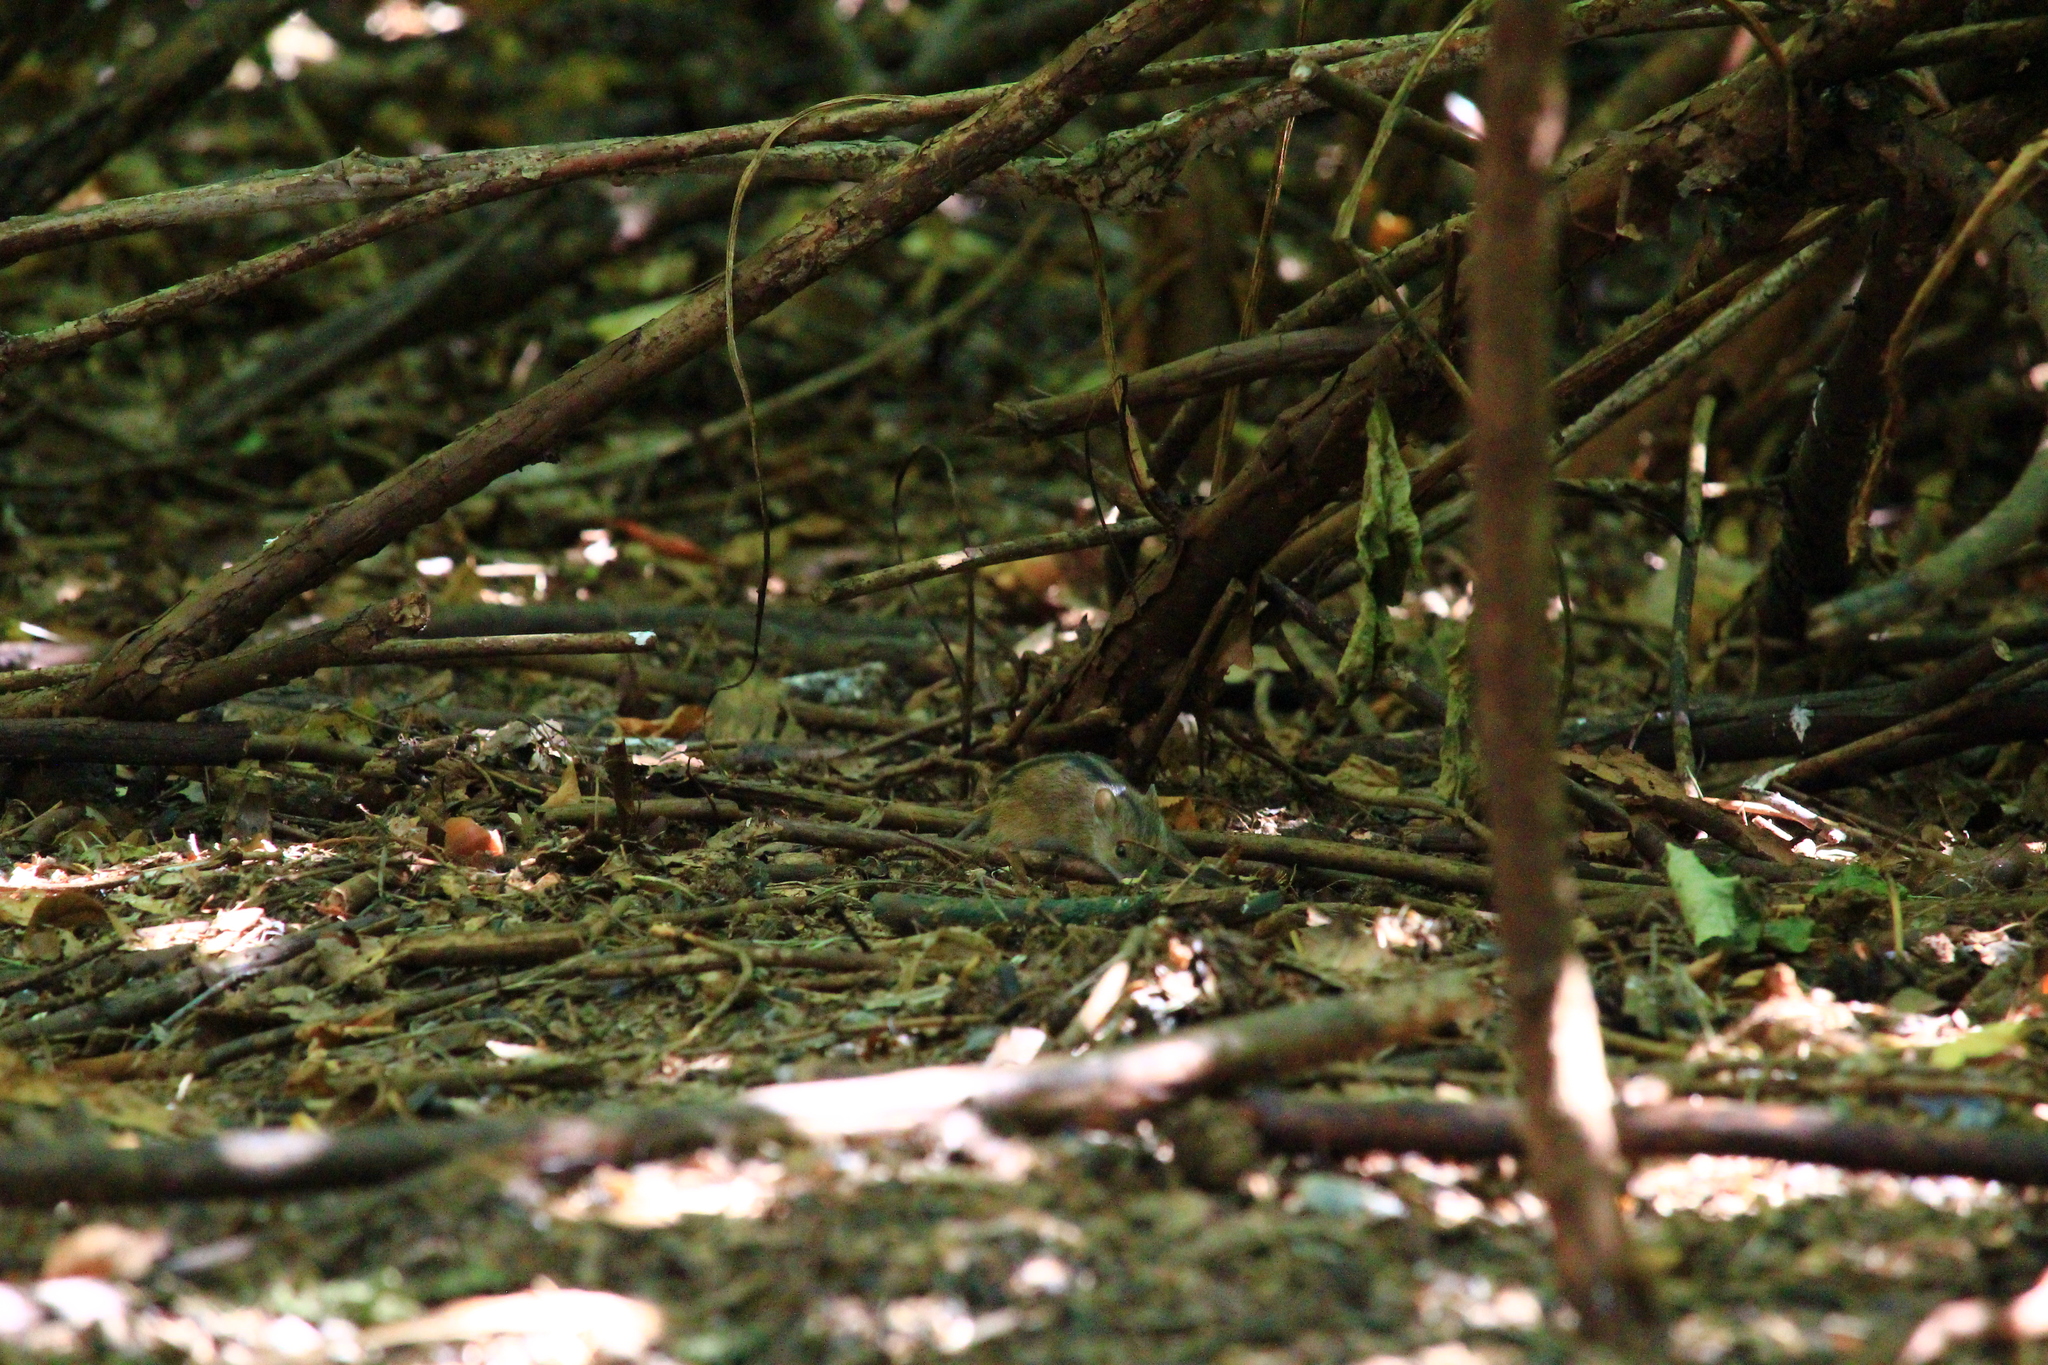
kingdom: Animalia
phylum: Chordata
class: Mammalia
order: Rodentia
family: Muridae
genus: Apodemus
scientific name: Apodemus agrarius
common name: Striped field mouse
